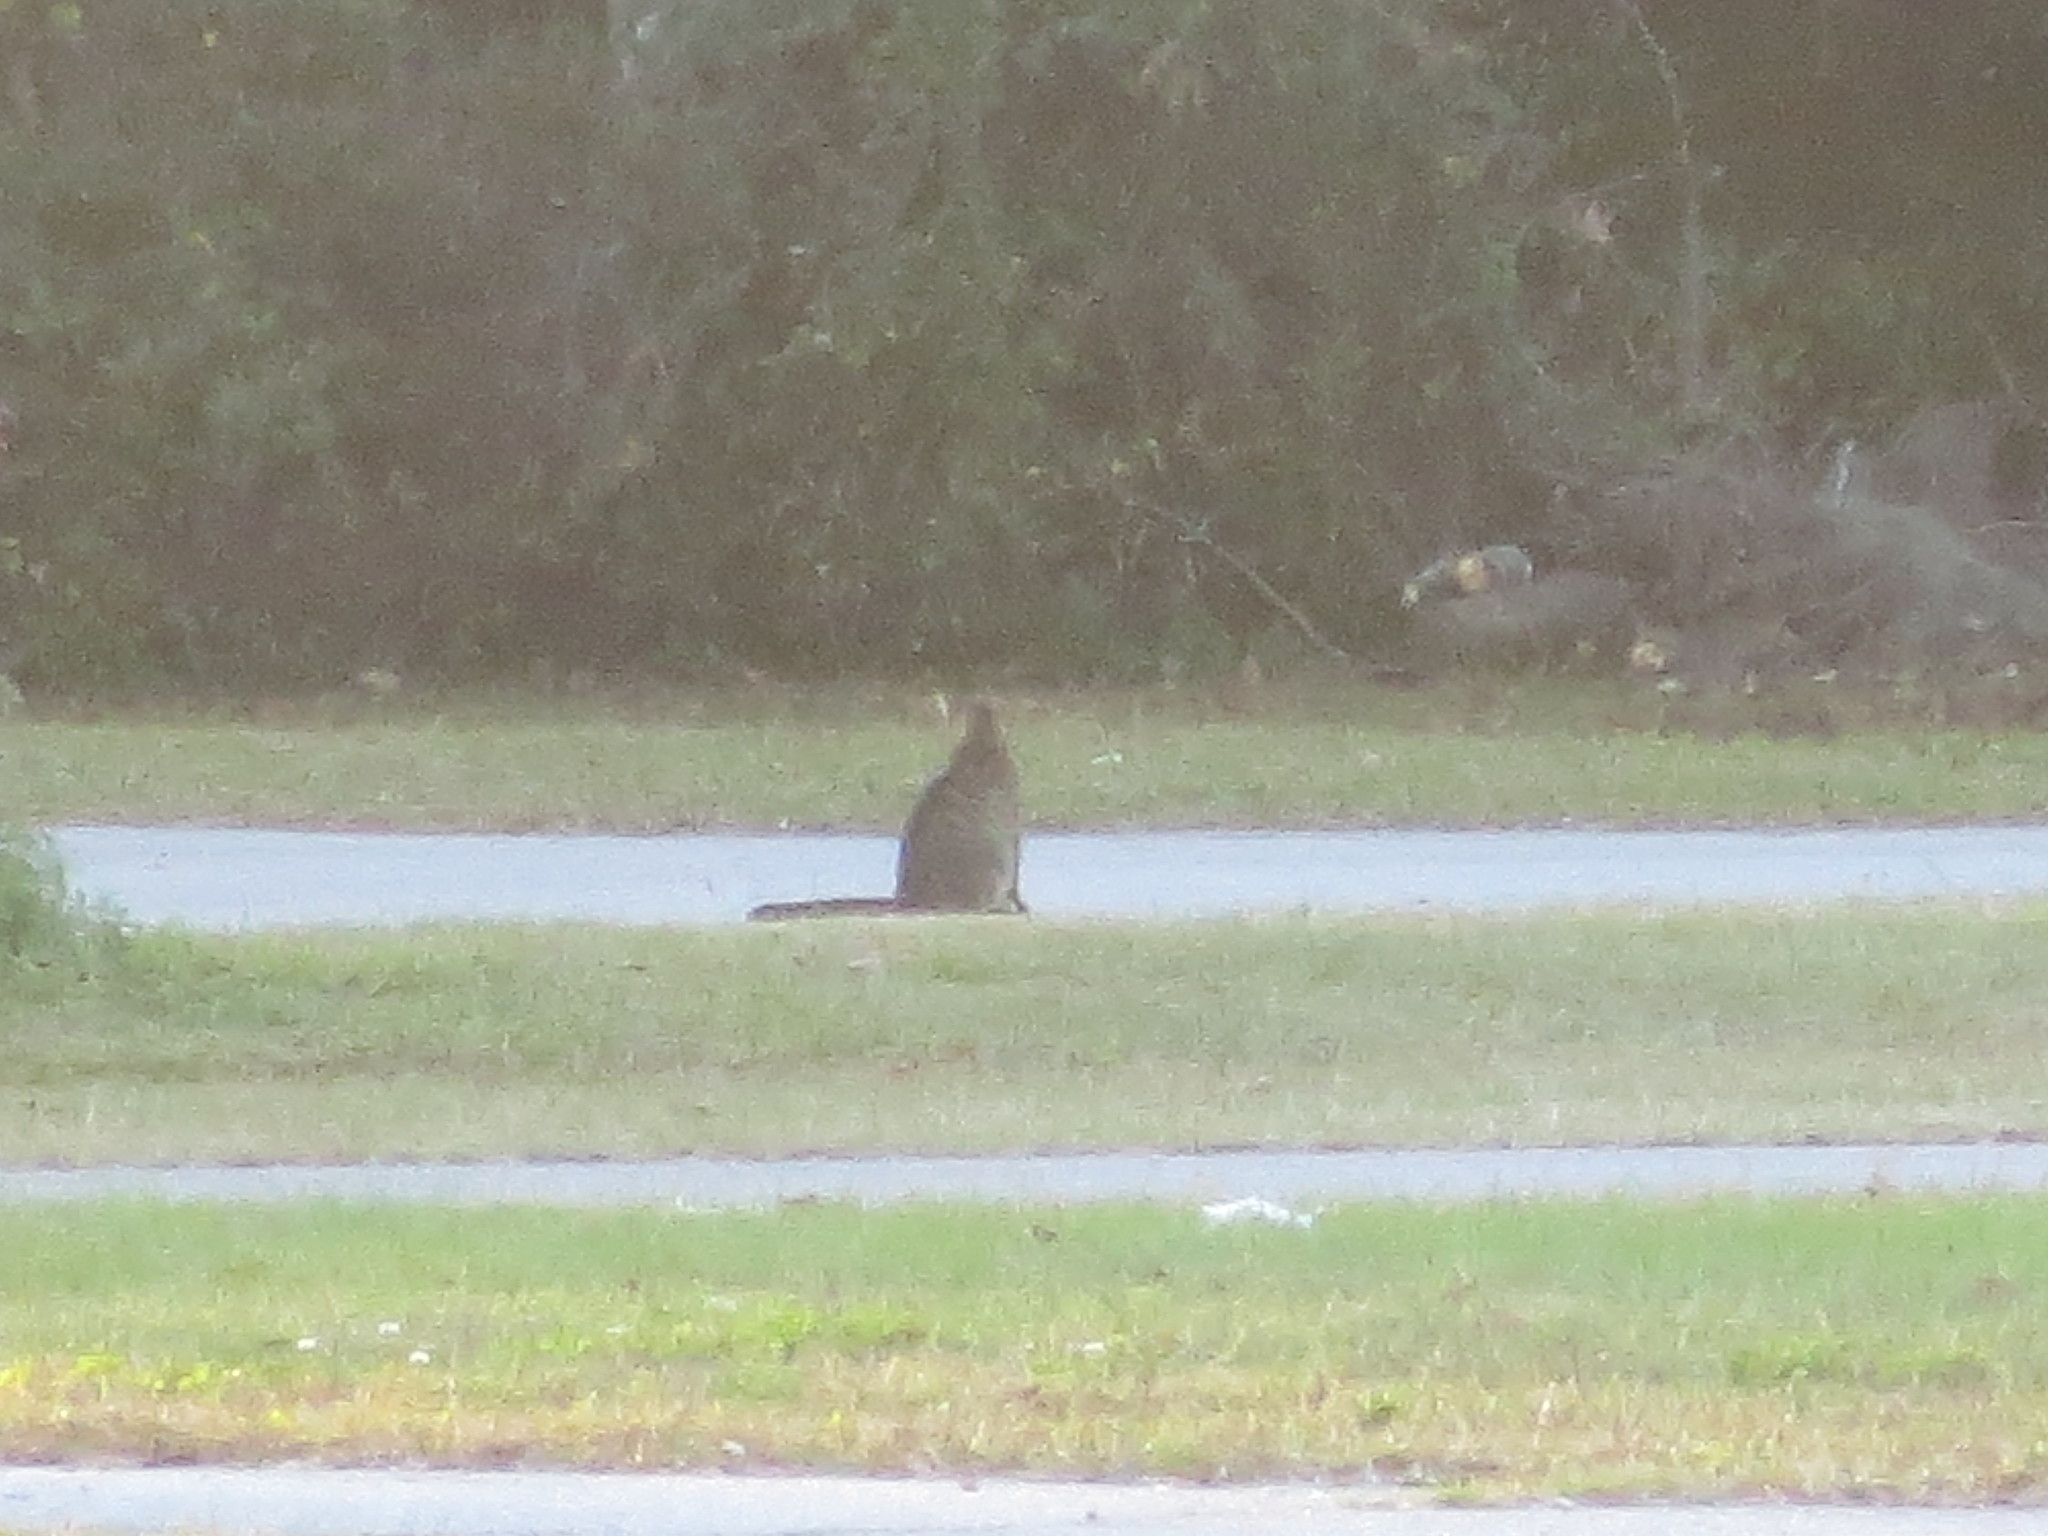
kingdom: Animalia
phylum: Chordata
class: Mammalia
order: Carnivora
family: Felidae
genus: Felis
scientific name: Felis catus
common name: Domestic cat
